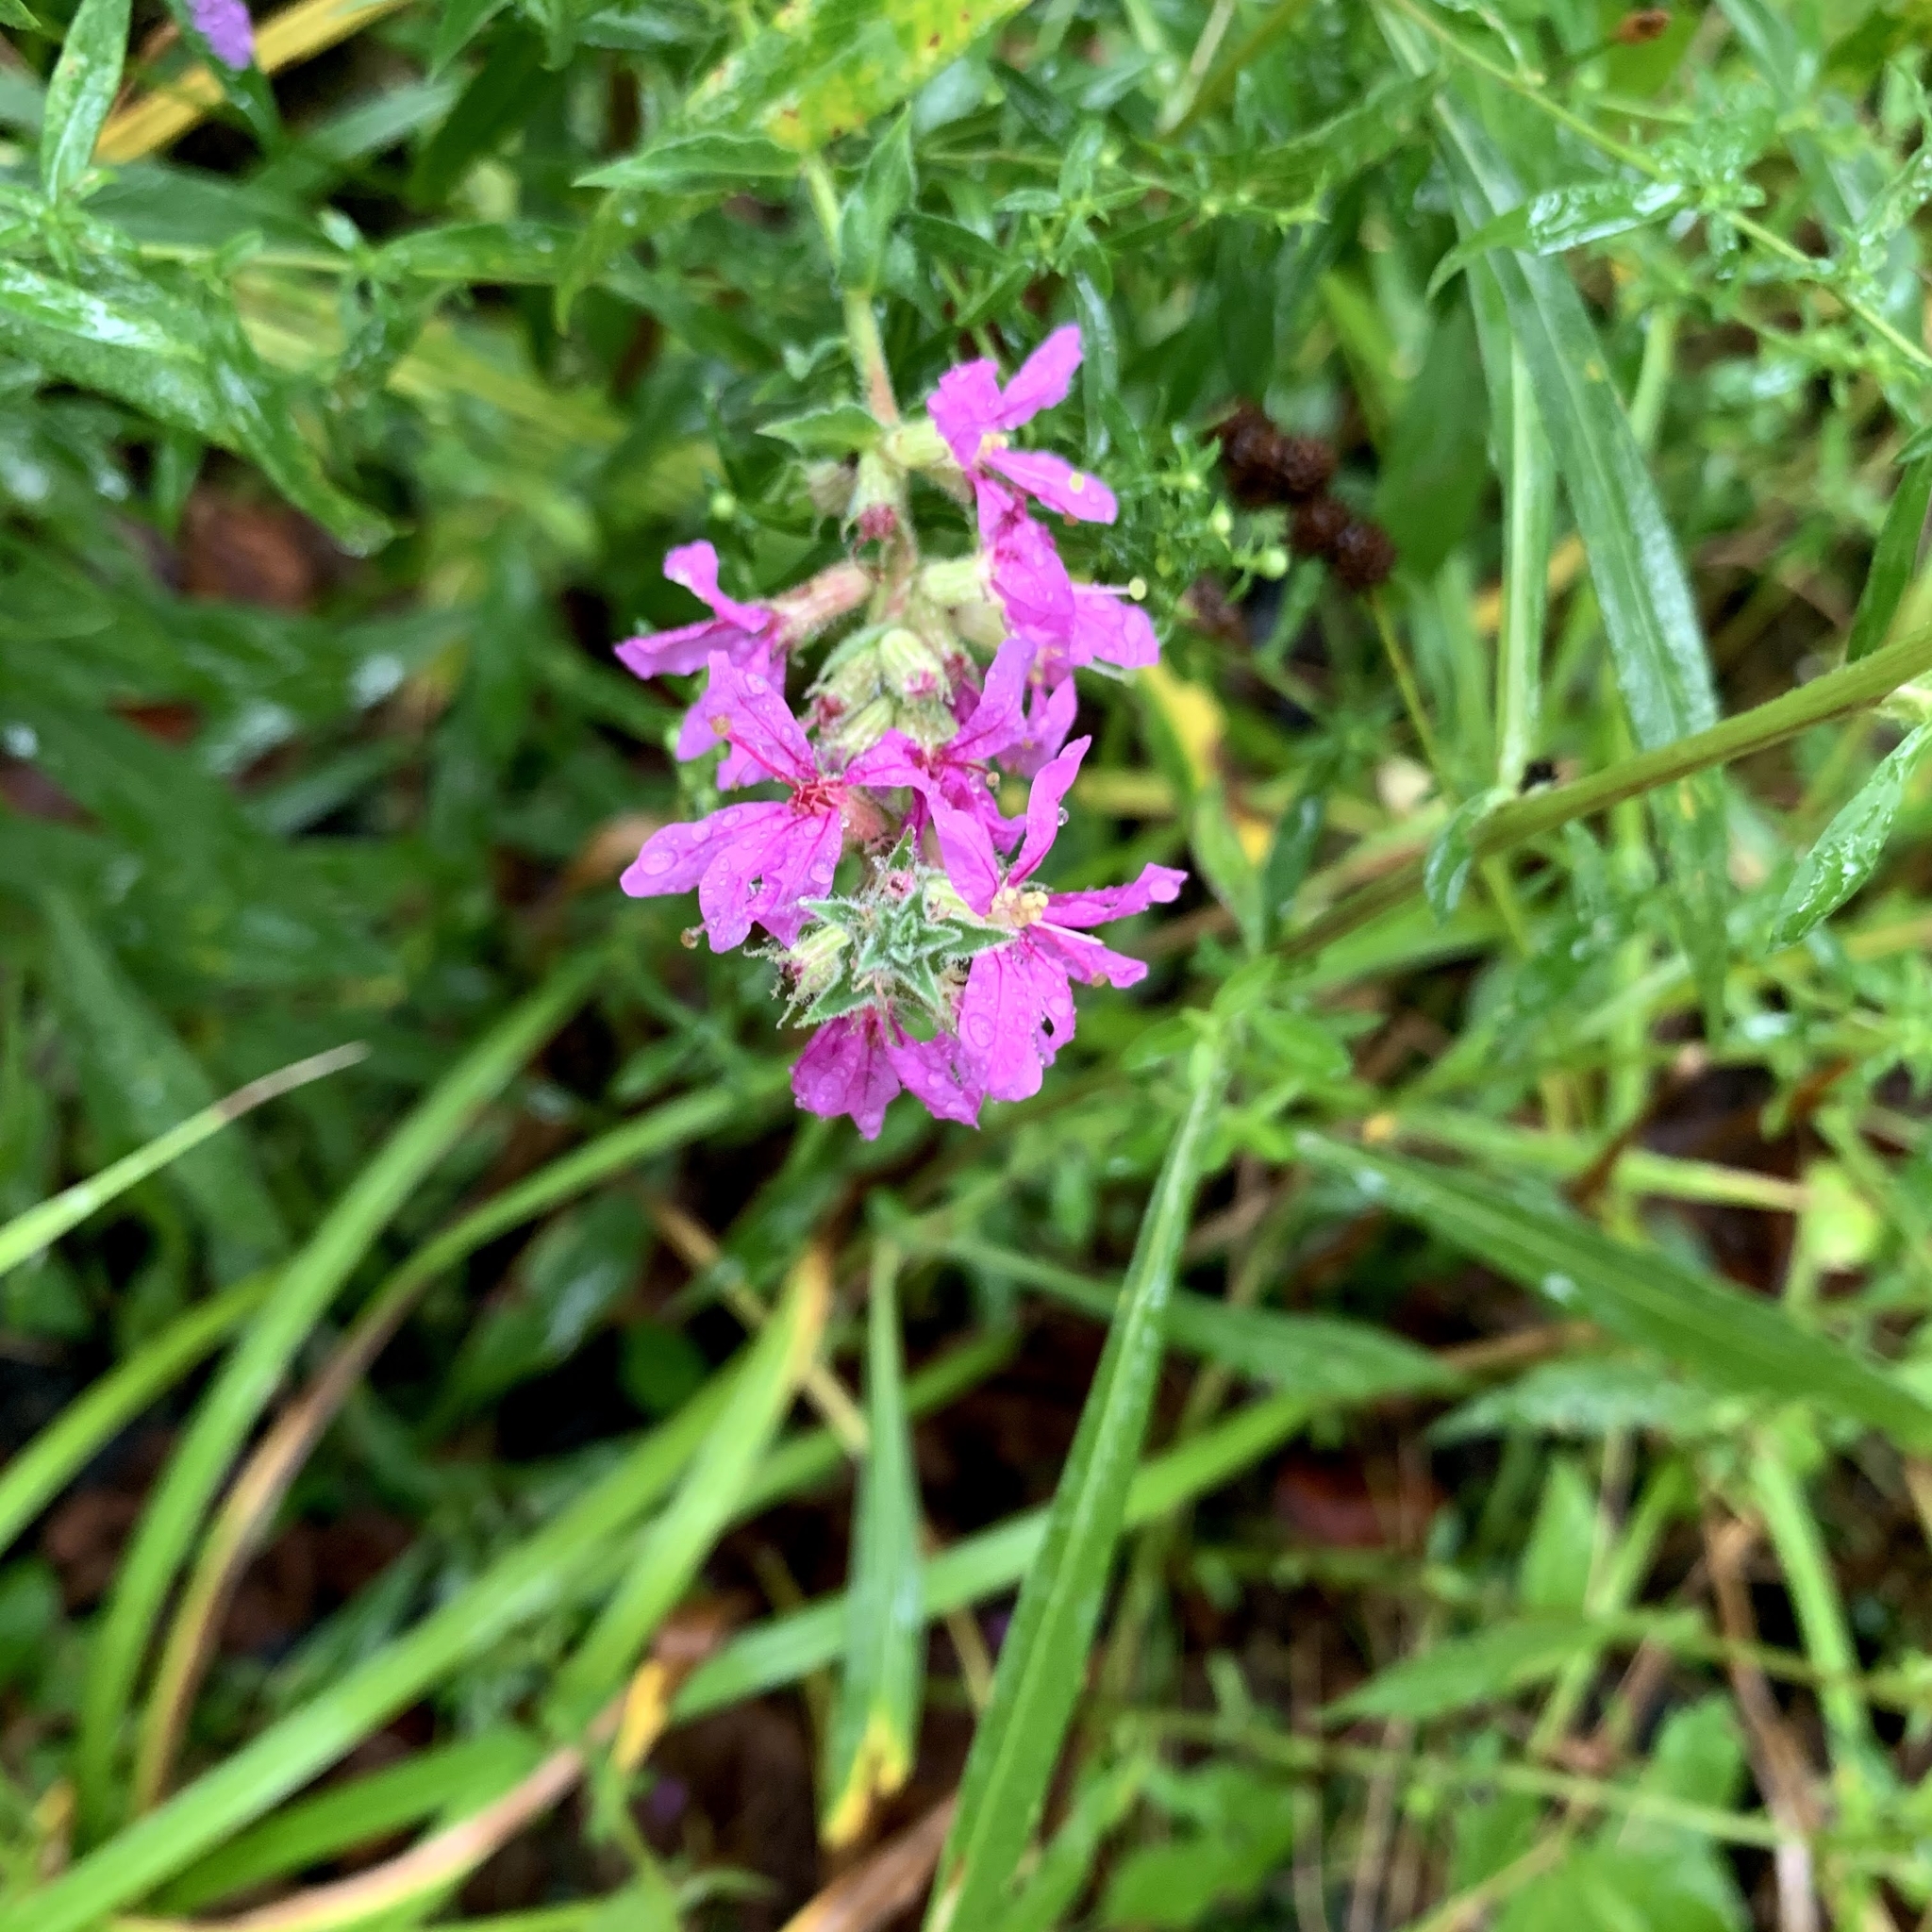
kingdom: Plantae
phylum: Tracheophyta
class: Magnoliopsida
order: Myrtales
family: Lythraceae
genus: Lythrum
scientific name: Lythrum salicaria
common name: Purple loosestrife
